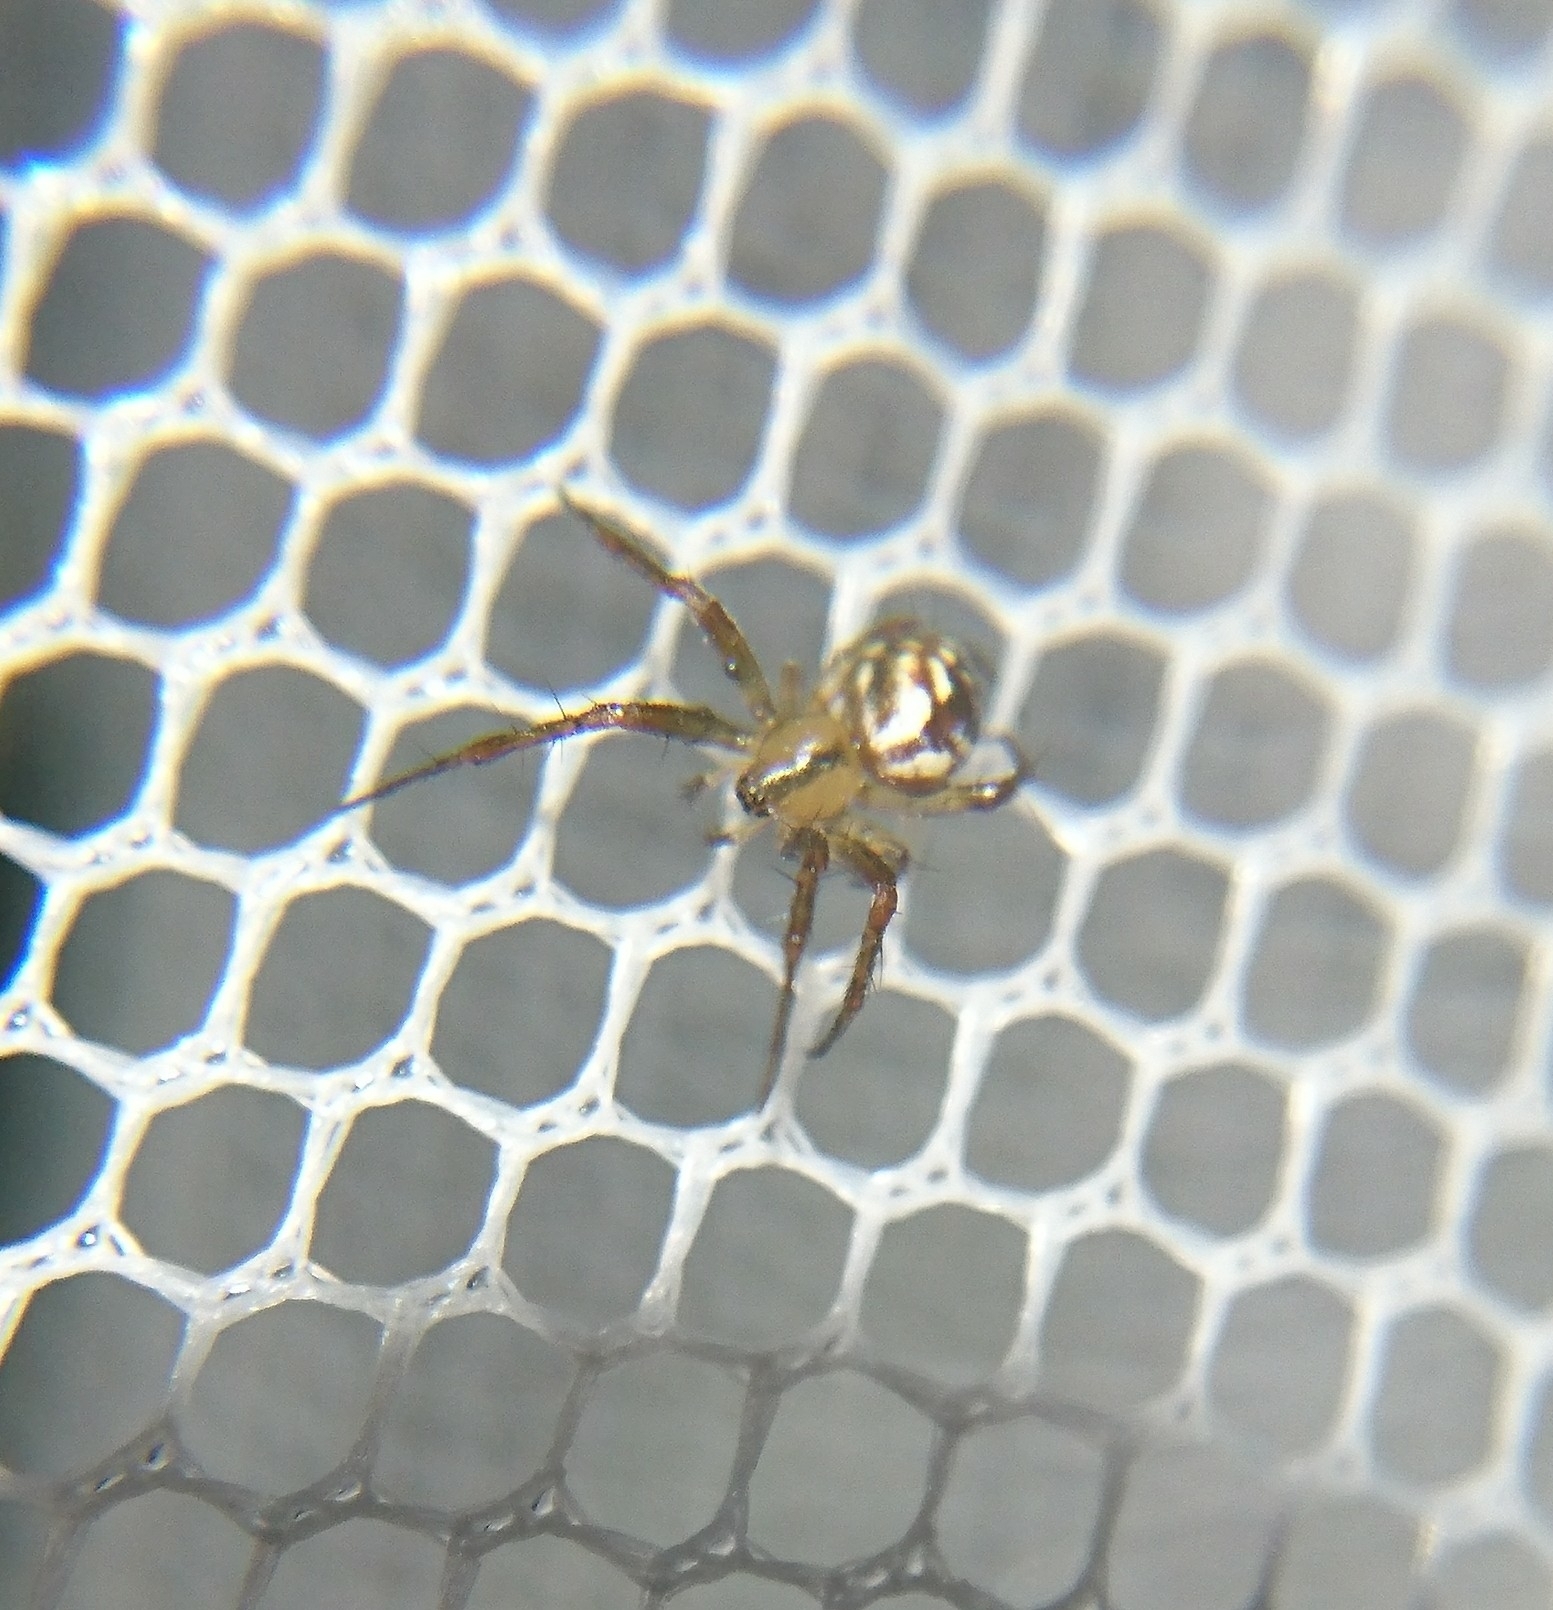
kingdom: Animalia
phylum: Arthropoda
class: Arachnida
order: Araneae
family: Araneidae
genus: Mangora
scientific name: Mangora placida
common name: Tuft-legged orbweaver
